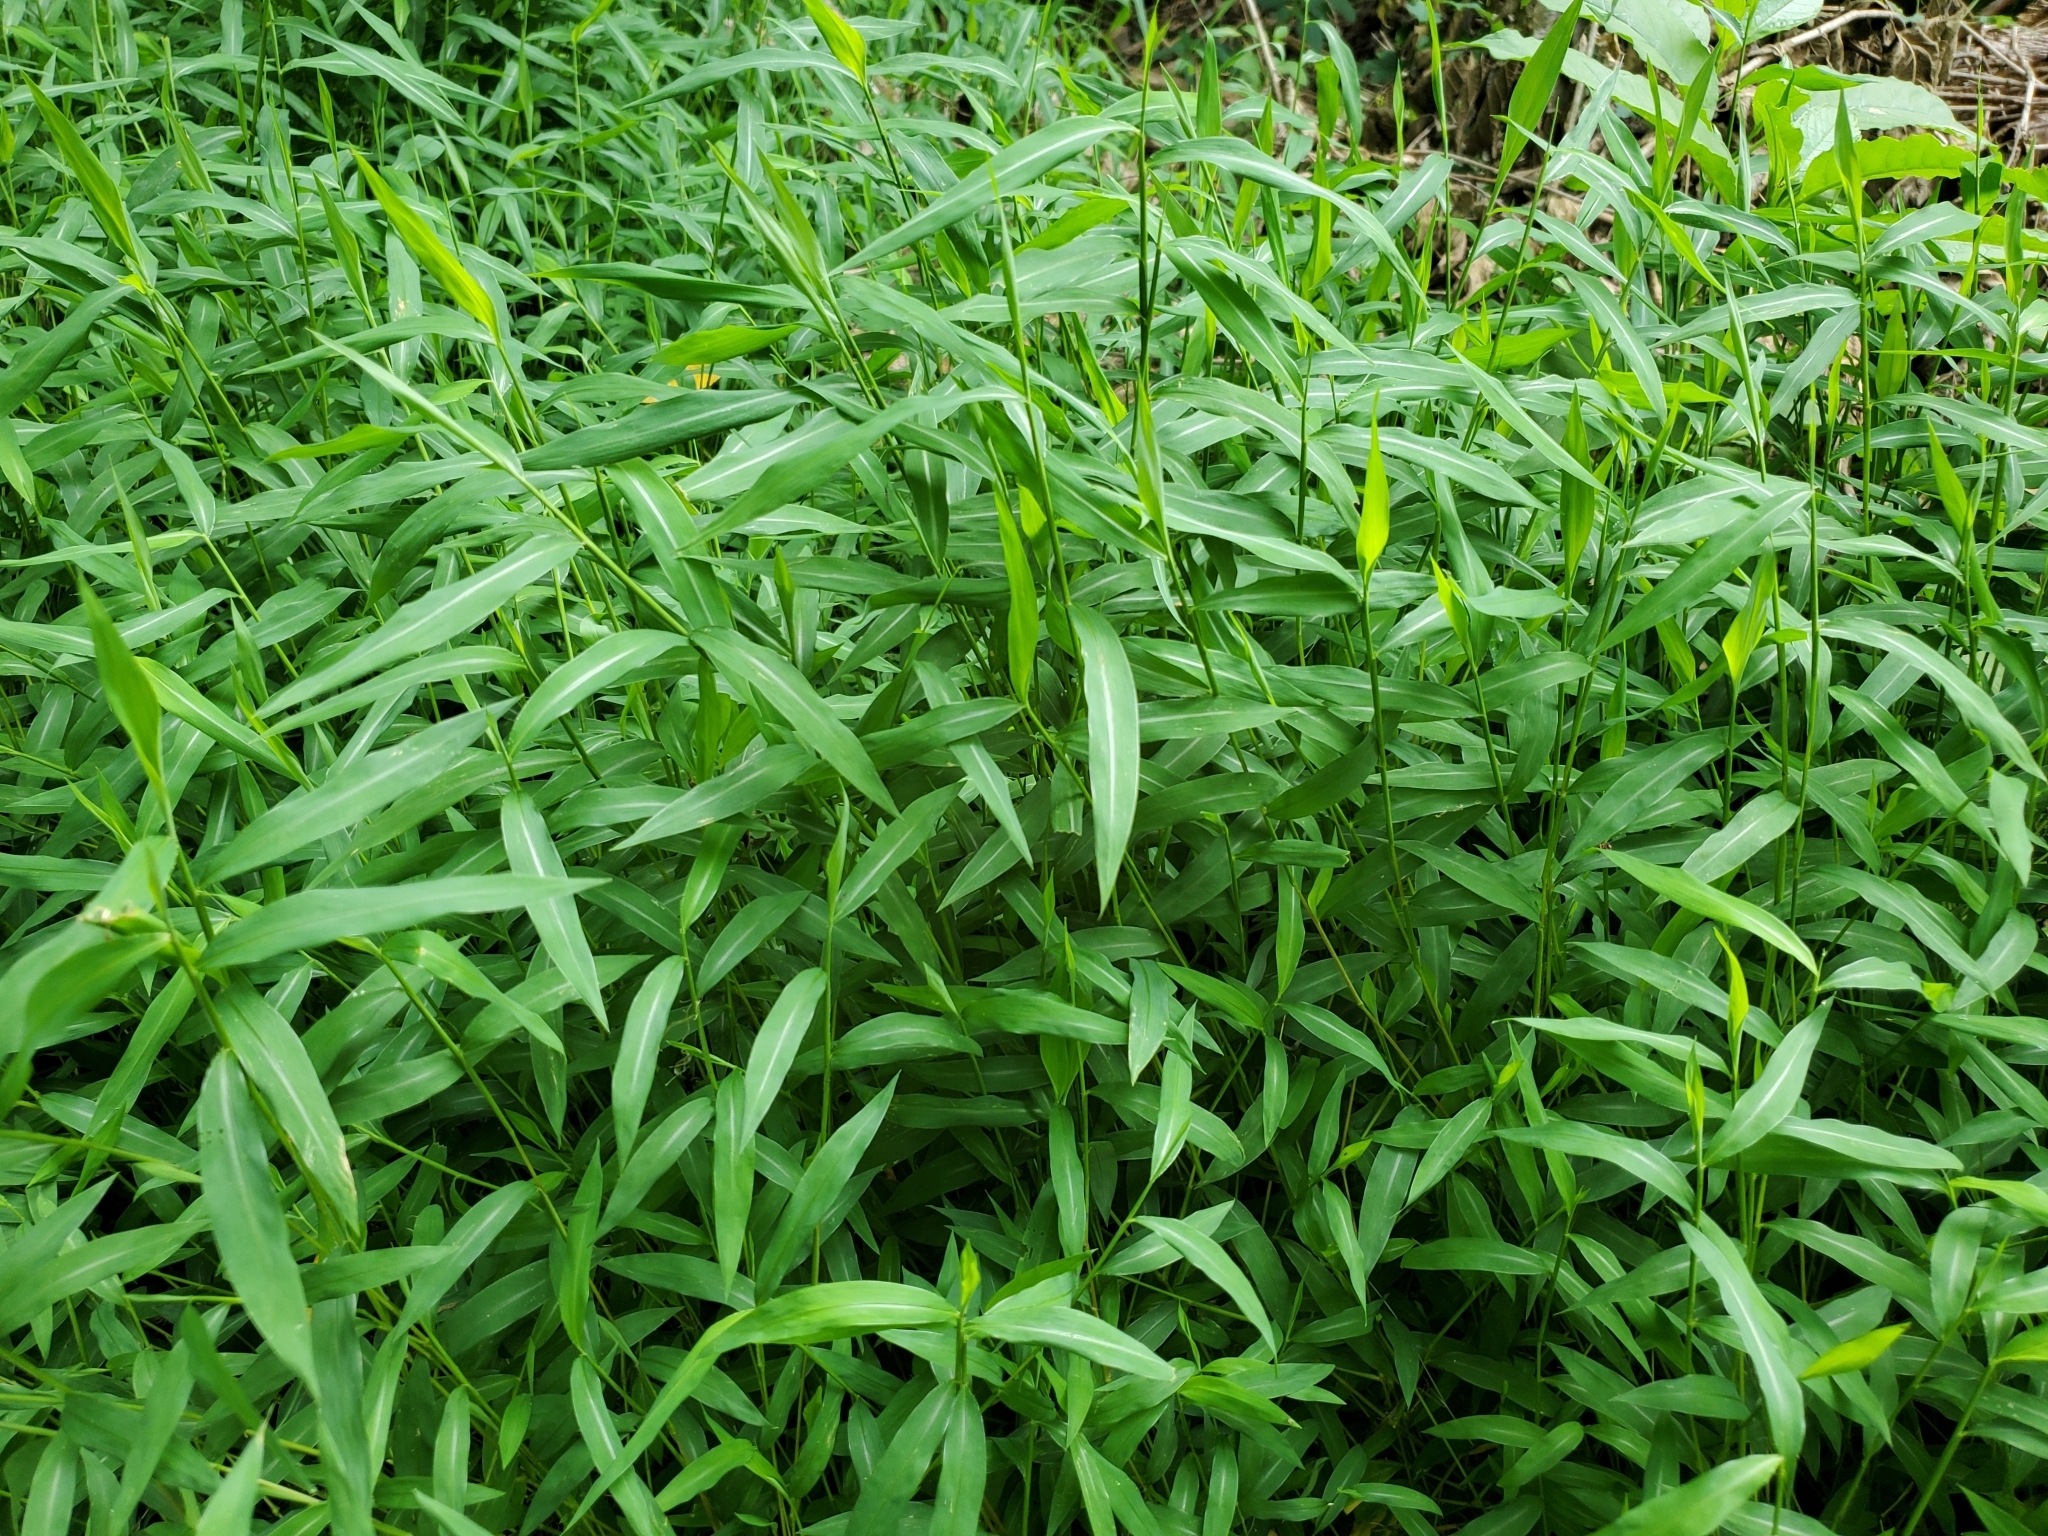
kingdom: Plantae
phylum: Tracheophyta
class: Liliopsida
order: Poales
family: Poaceae
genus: Microstegium
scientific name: Microstegium vimineum
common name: Japanese stiltgrass
